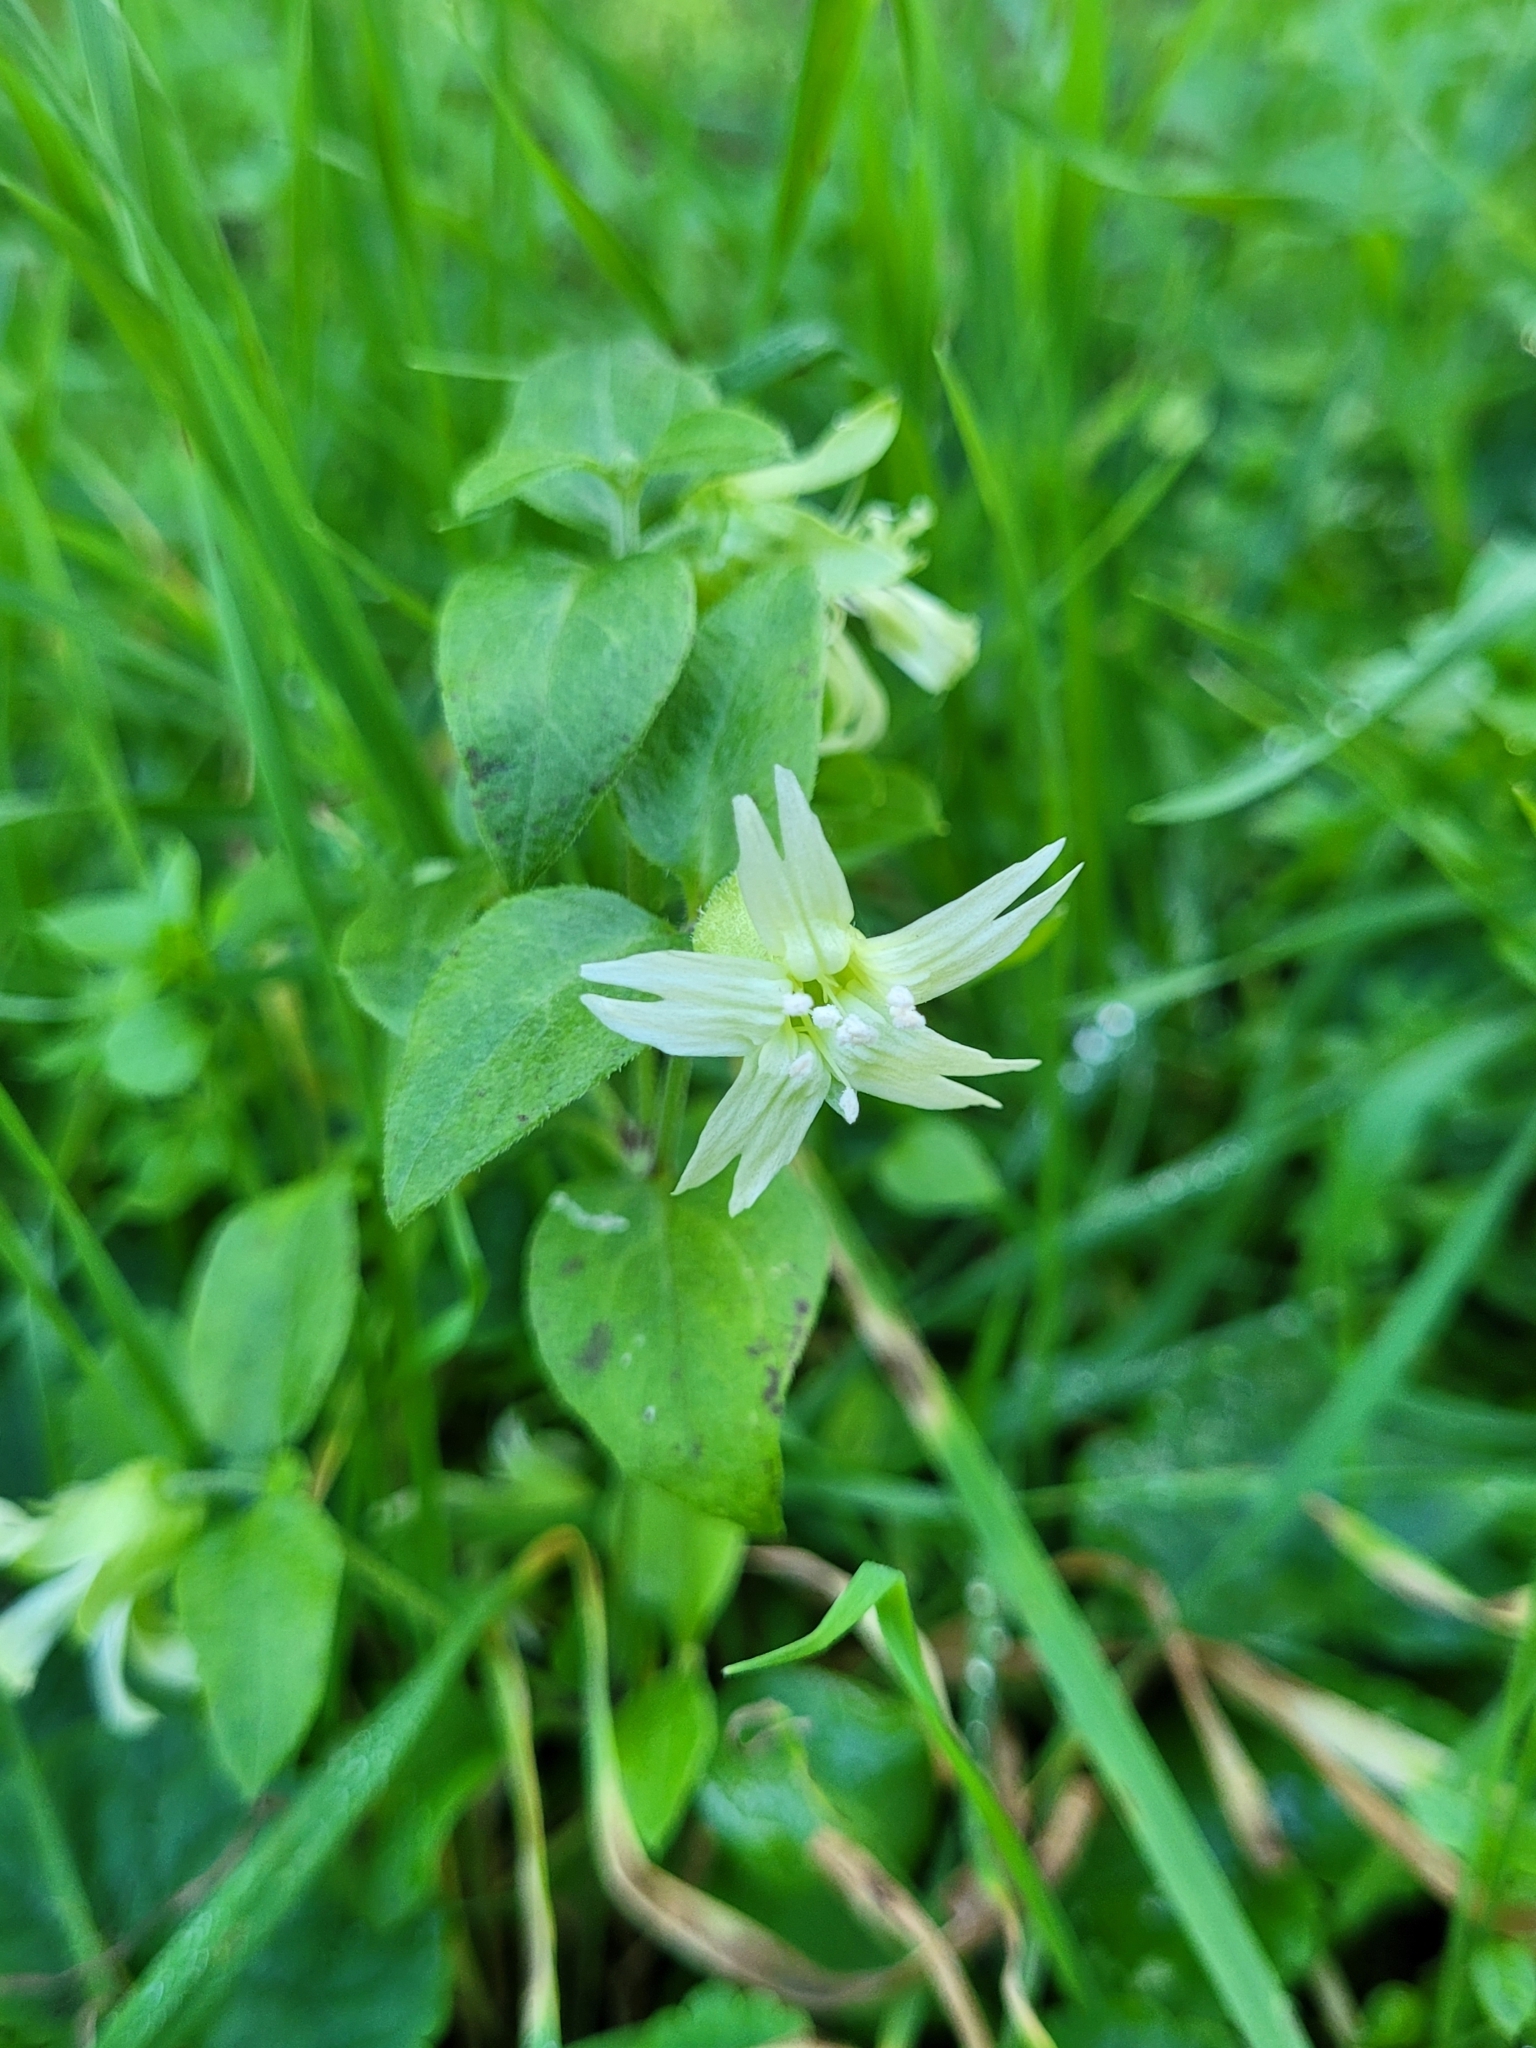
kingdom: Plantae
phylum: Tracheophyta
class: Magnoliopsida
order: Caryophyllales
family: Caryophyllaceae
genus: Silene
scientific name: Silene baccifera
